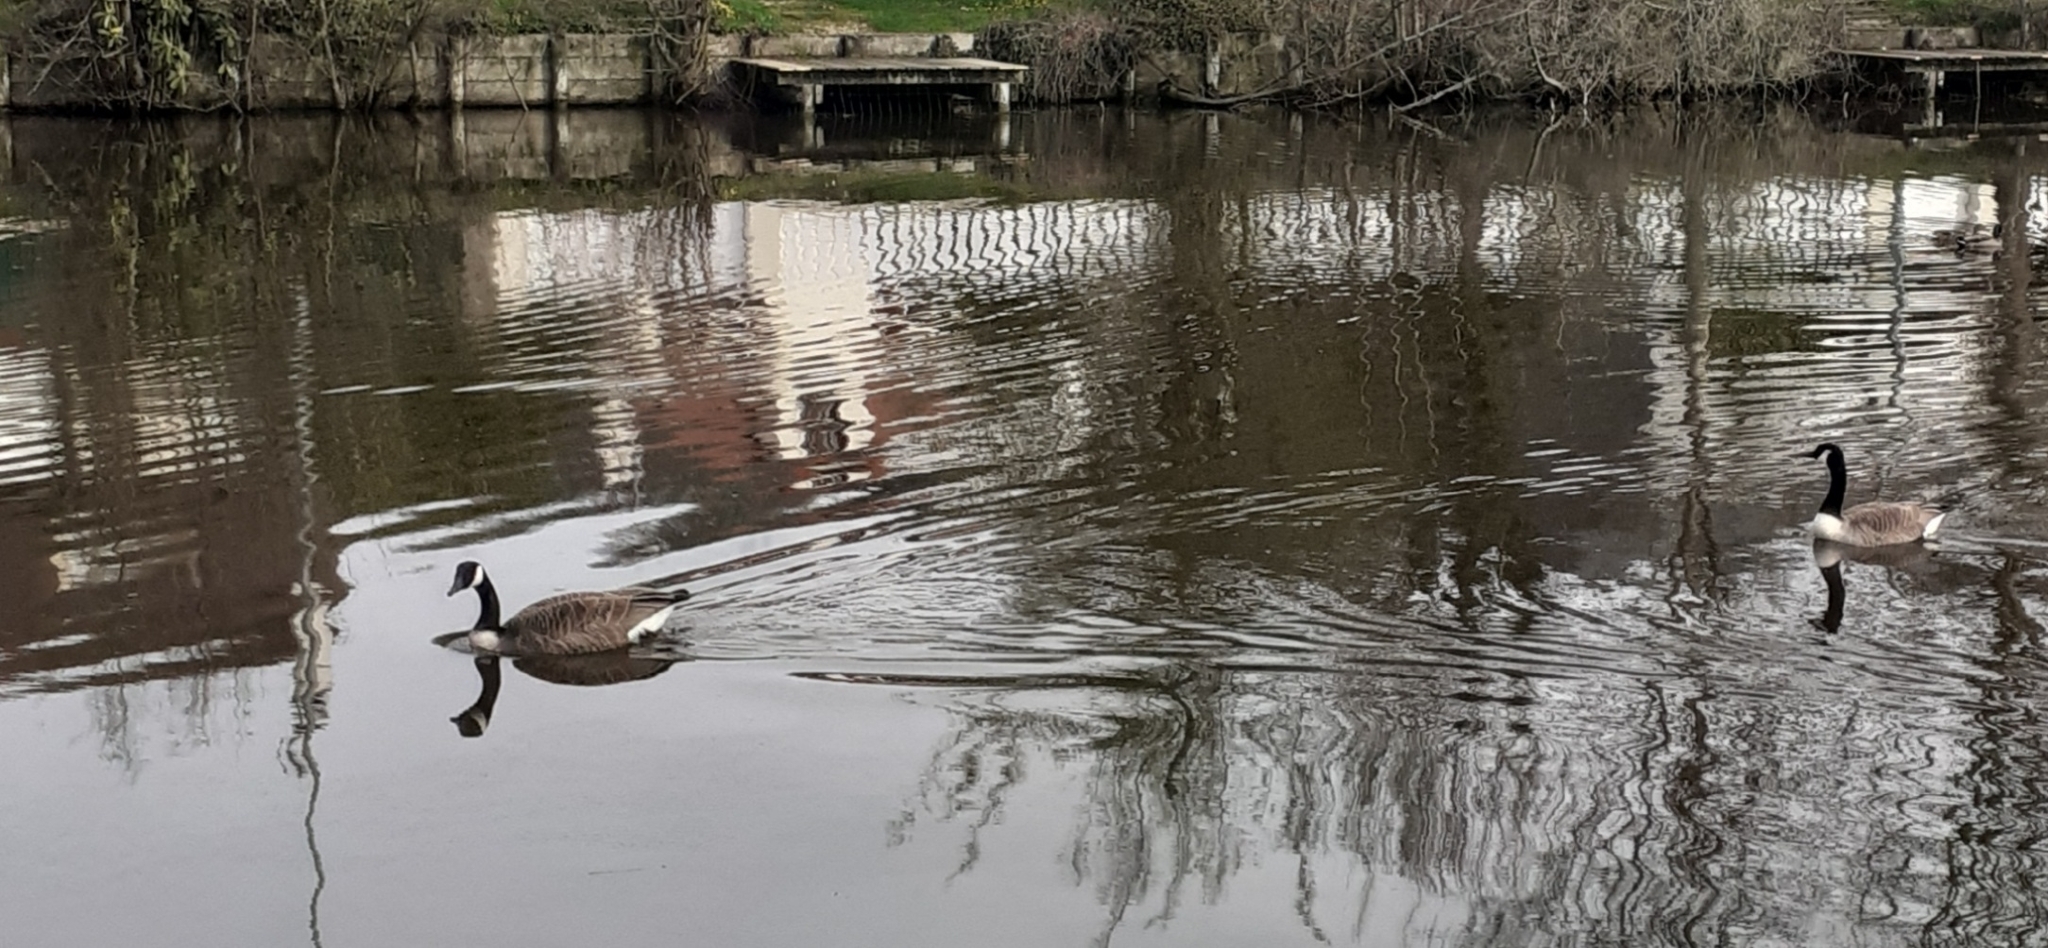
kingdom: Animalia
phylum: Chordata
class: Aves
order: Anseriformes
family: Anatidae
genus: Branta
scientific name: Branta canadensis
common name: Canada goose
